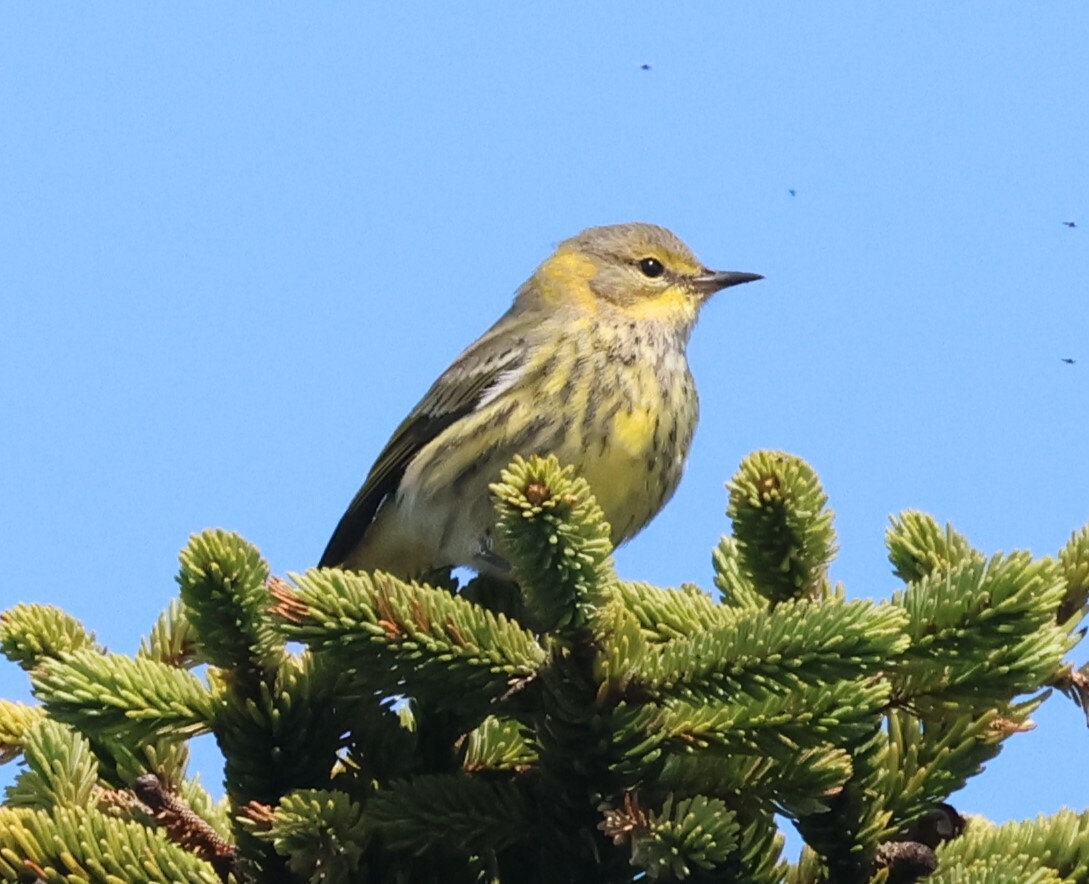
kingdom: Animalia
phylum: Chordata
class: Aves
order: Passeriformes
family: Parulidae
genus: Setophaga
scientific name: Setophaga tigrina
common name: Cape may warbler
